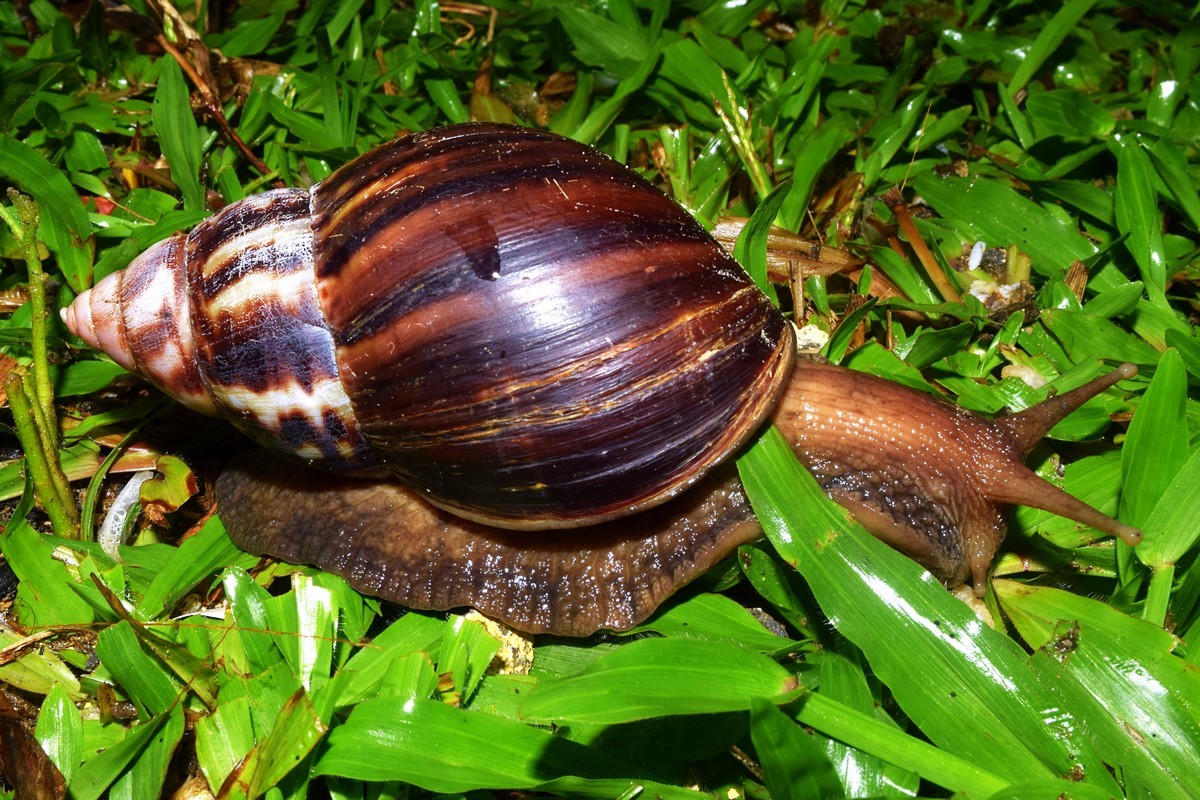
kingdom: Animalia
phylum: Mollusca
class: Gastropoda
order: Stylommatophora
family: Achatinidae
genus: Lissachatina
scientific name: Lissachatina fulica
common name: Giant african snail
